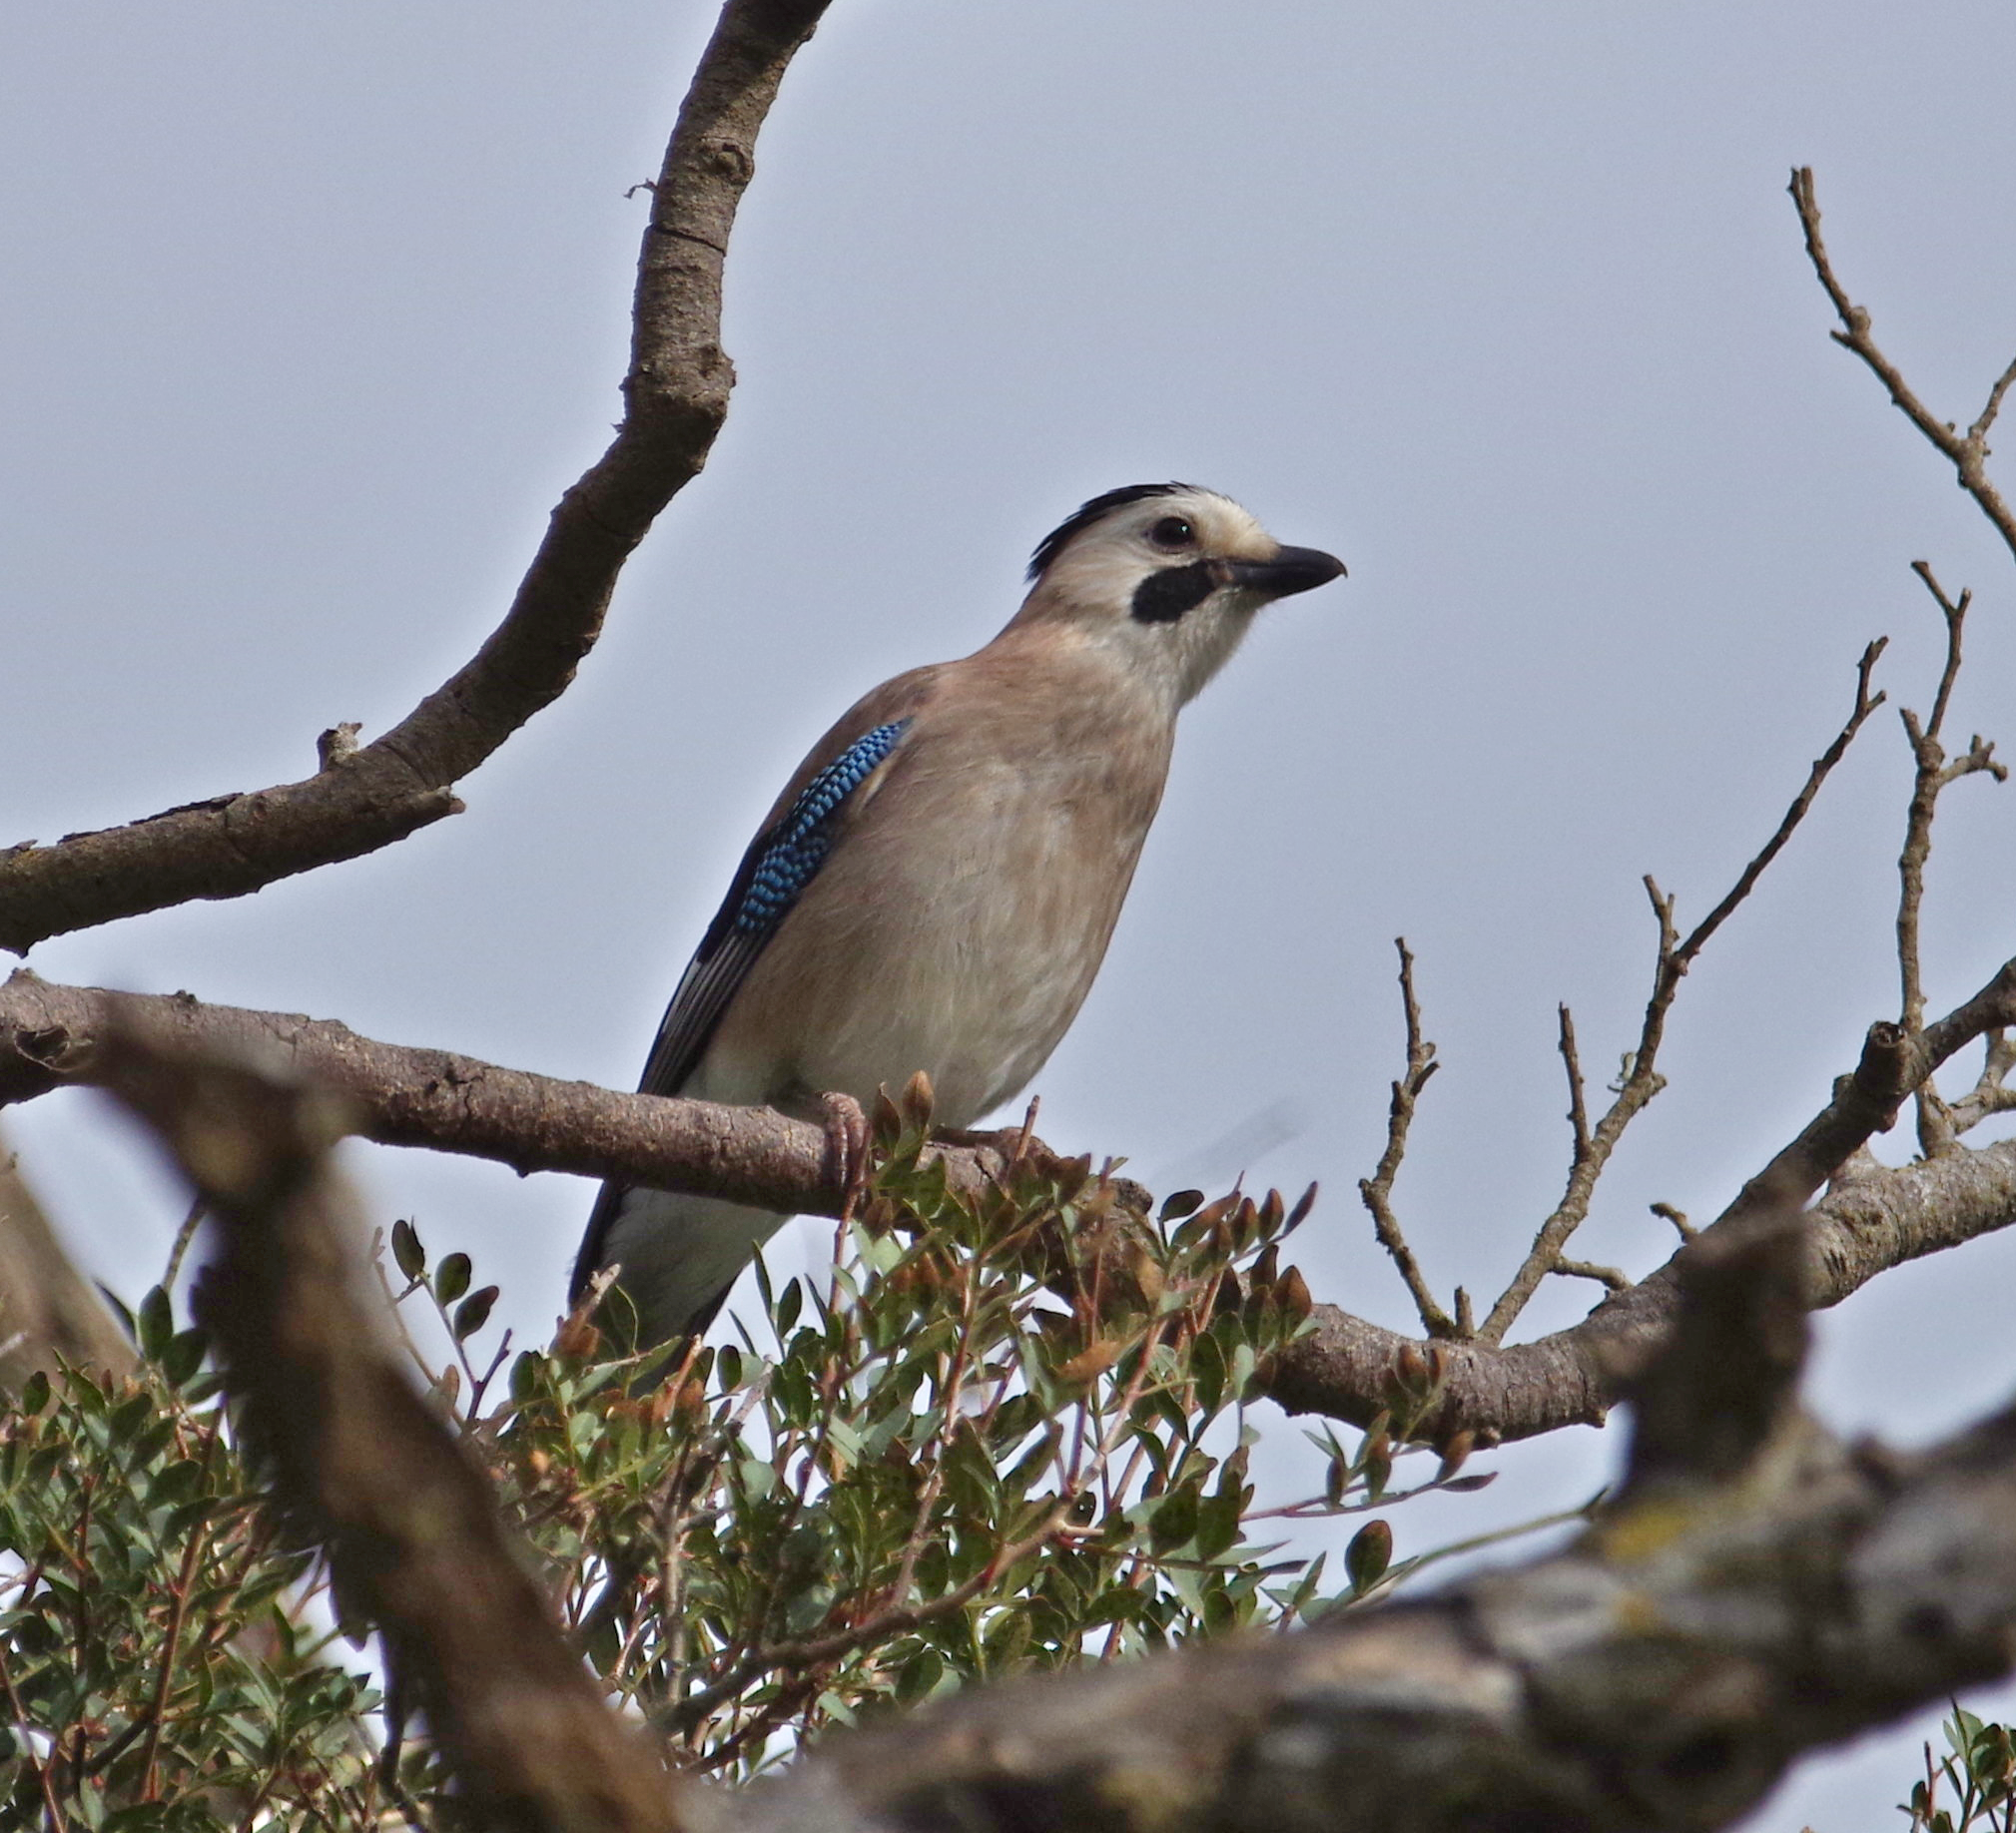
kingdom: Animalia
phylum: Chordata
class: Aves
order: Passeriformes
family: Corvidae
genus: Garrulus
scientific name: Garrulus glandarius
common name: Eurasian jay
